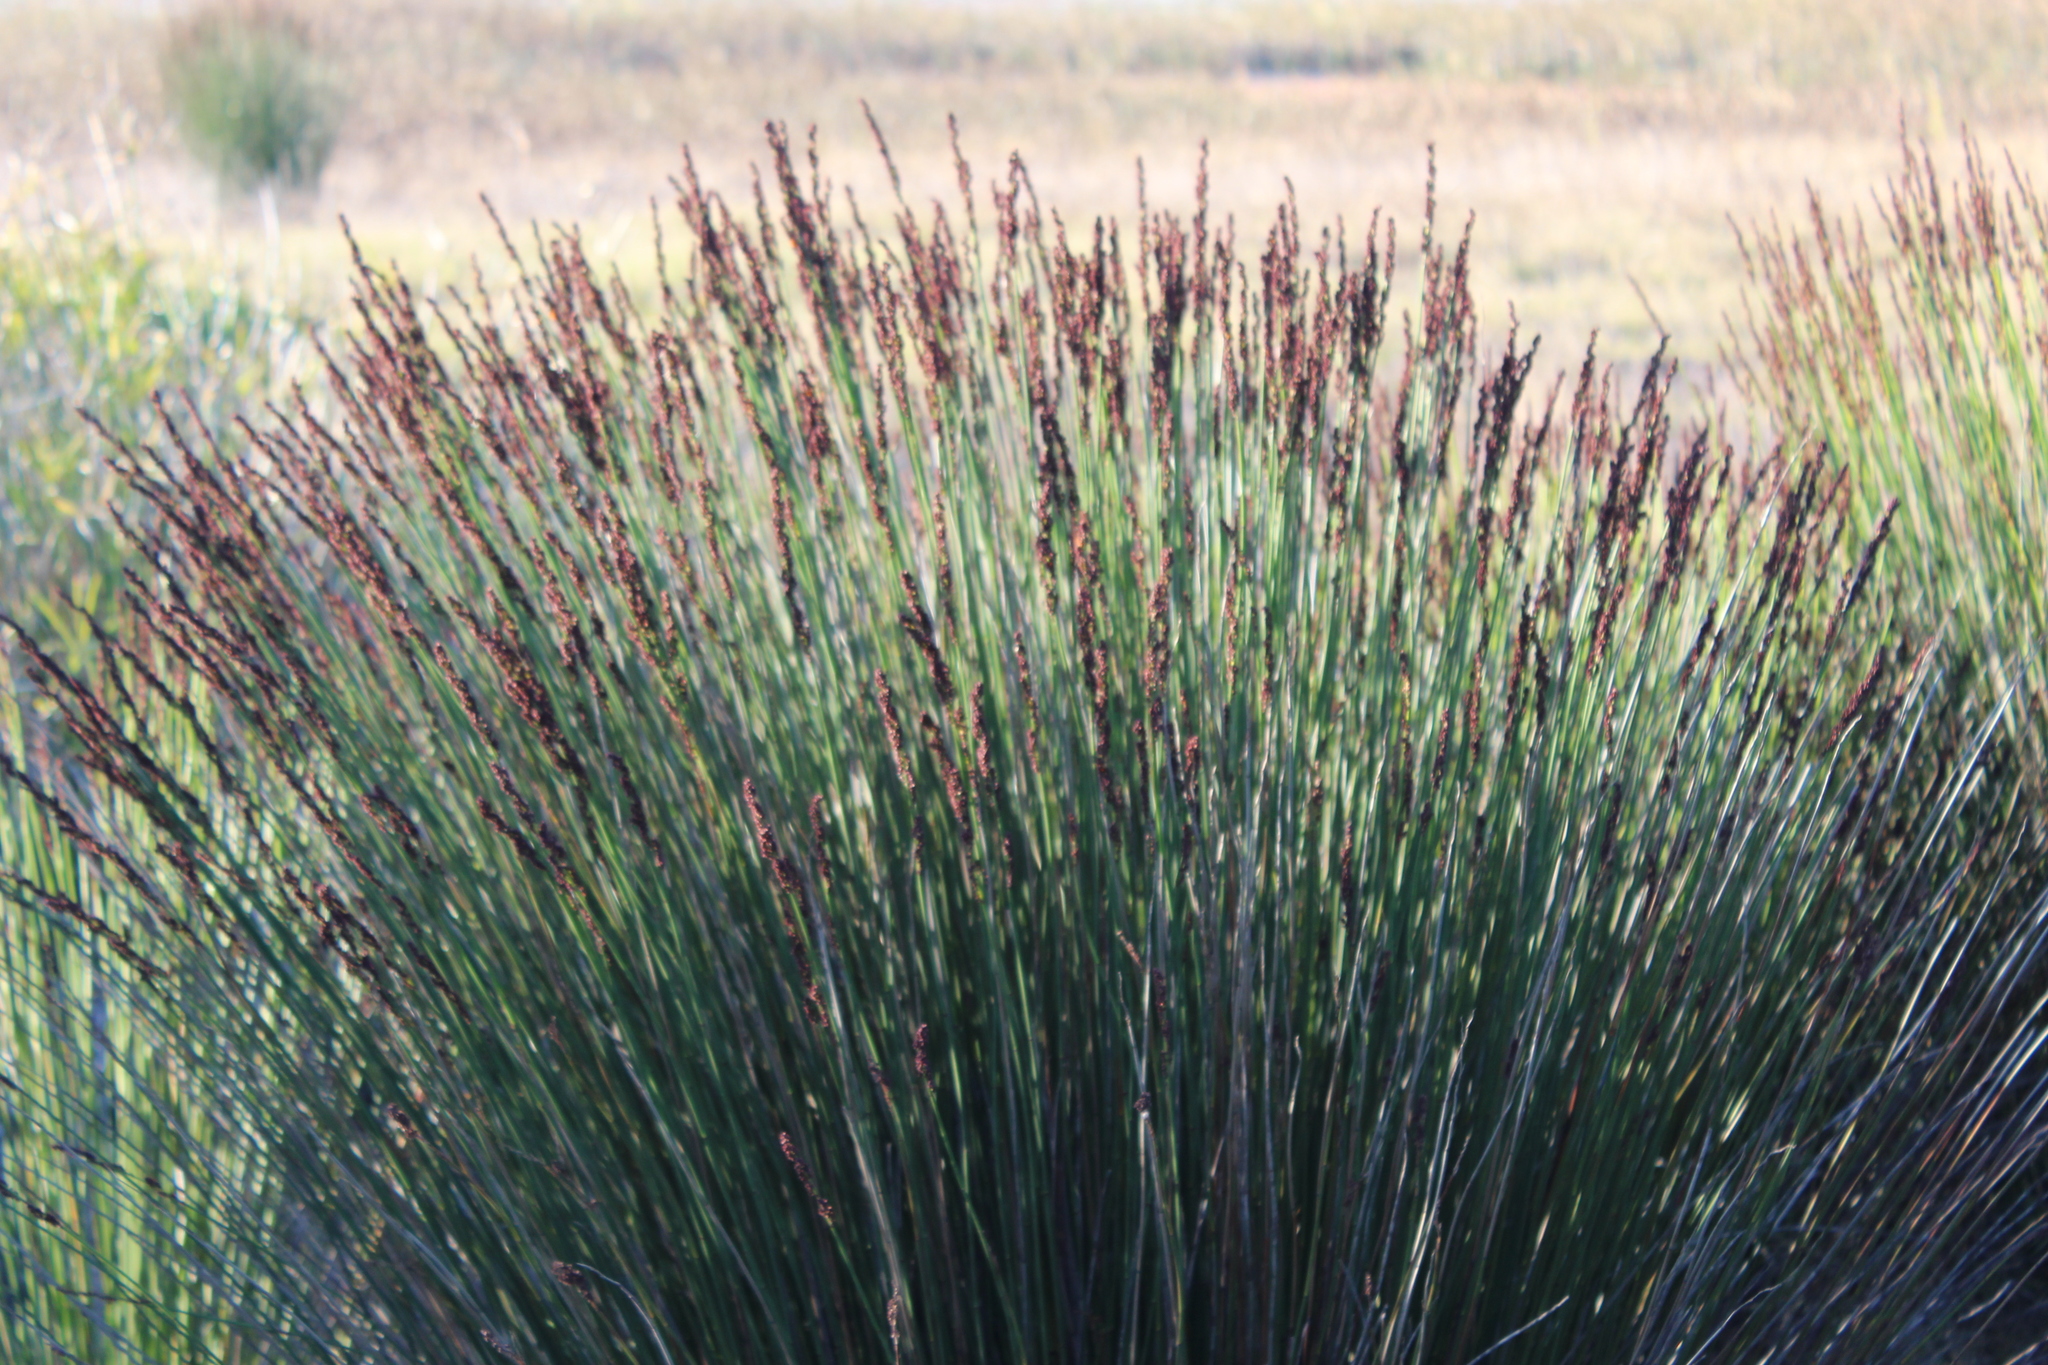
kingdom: Plantae
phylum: Tracheophyta
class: Liliopsida
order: Poales
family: Restionaceae
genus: Elegia
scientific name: Elegia tectorum
